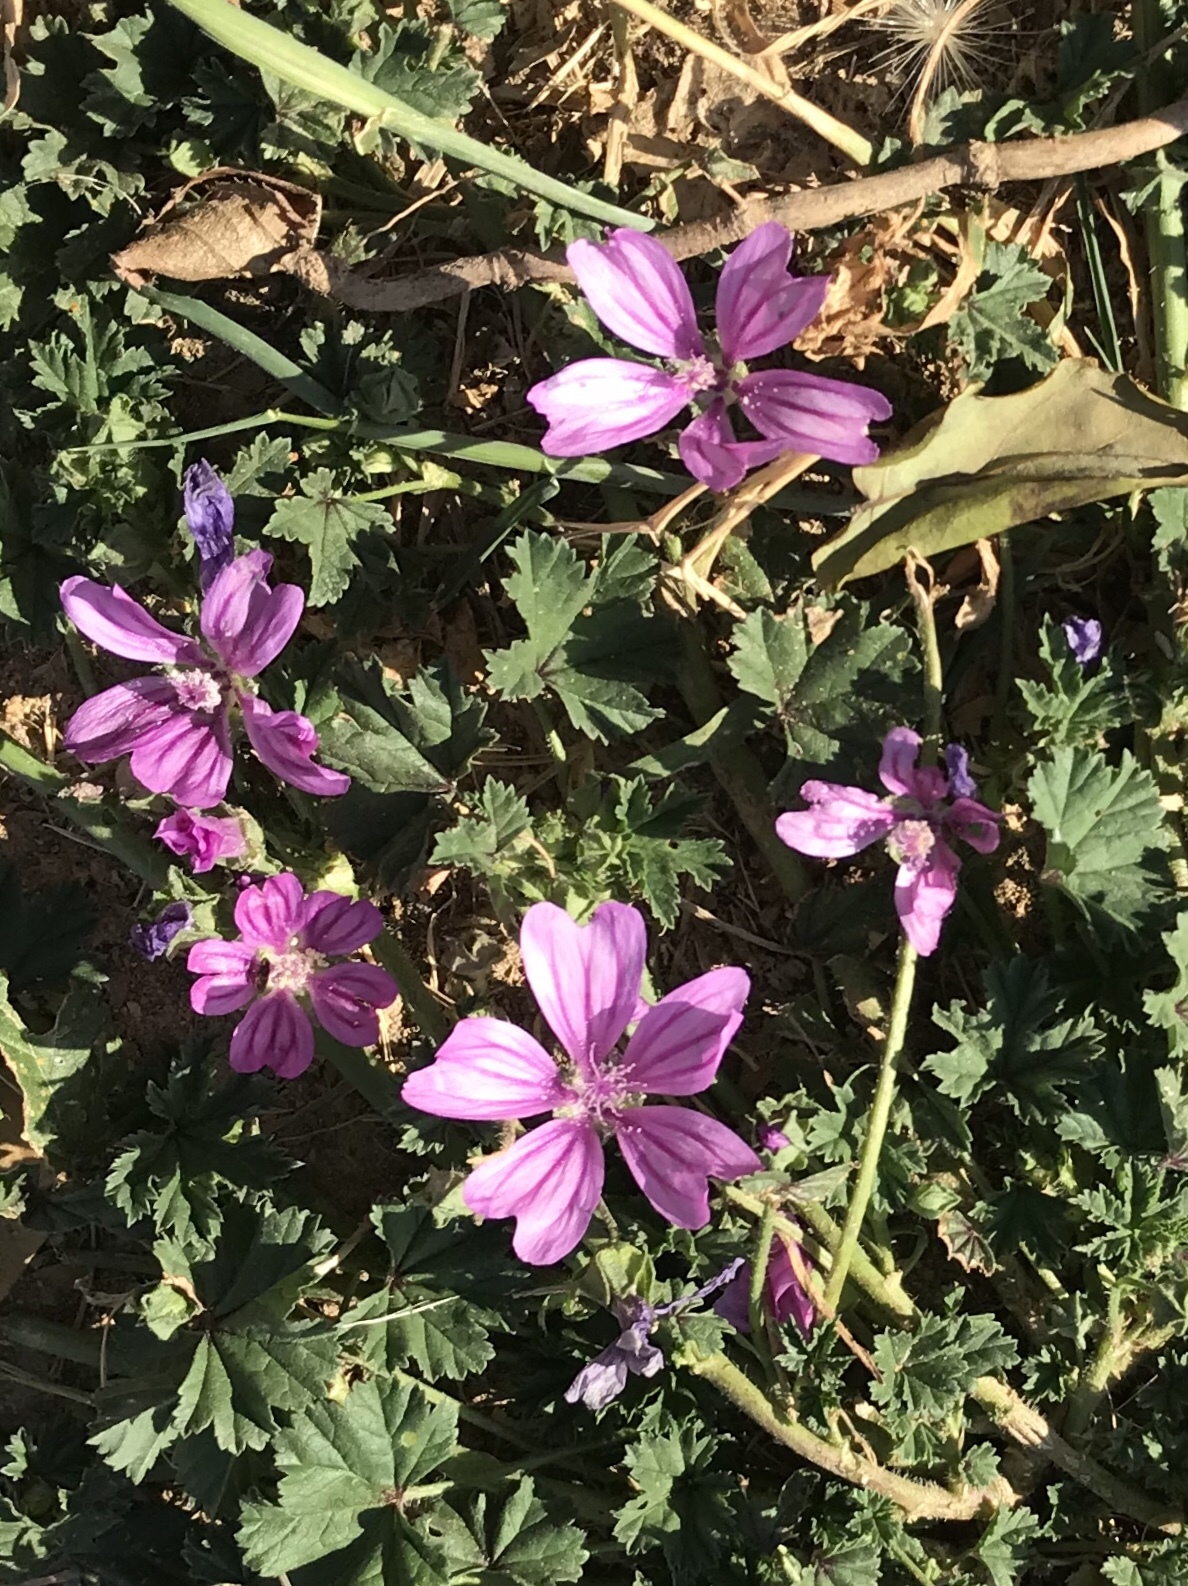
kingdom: Plantae
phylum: Tracheophyta
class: Magnoliopsida
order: Malvales
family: Malvaceae
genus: Malva
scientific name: Malva sylvestris
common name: Common mallow
